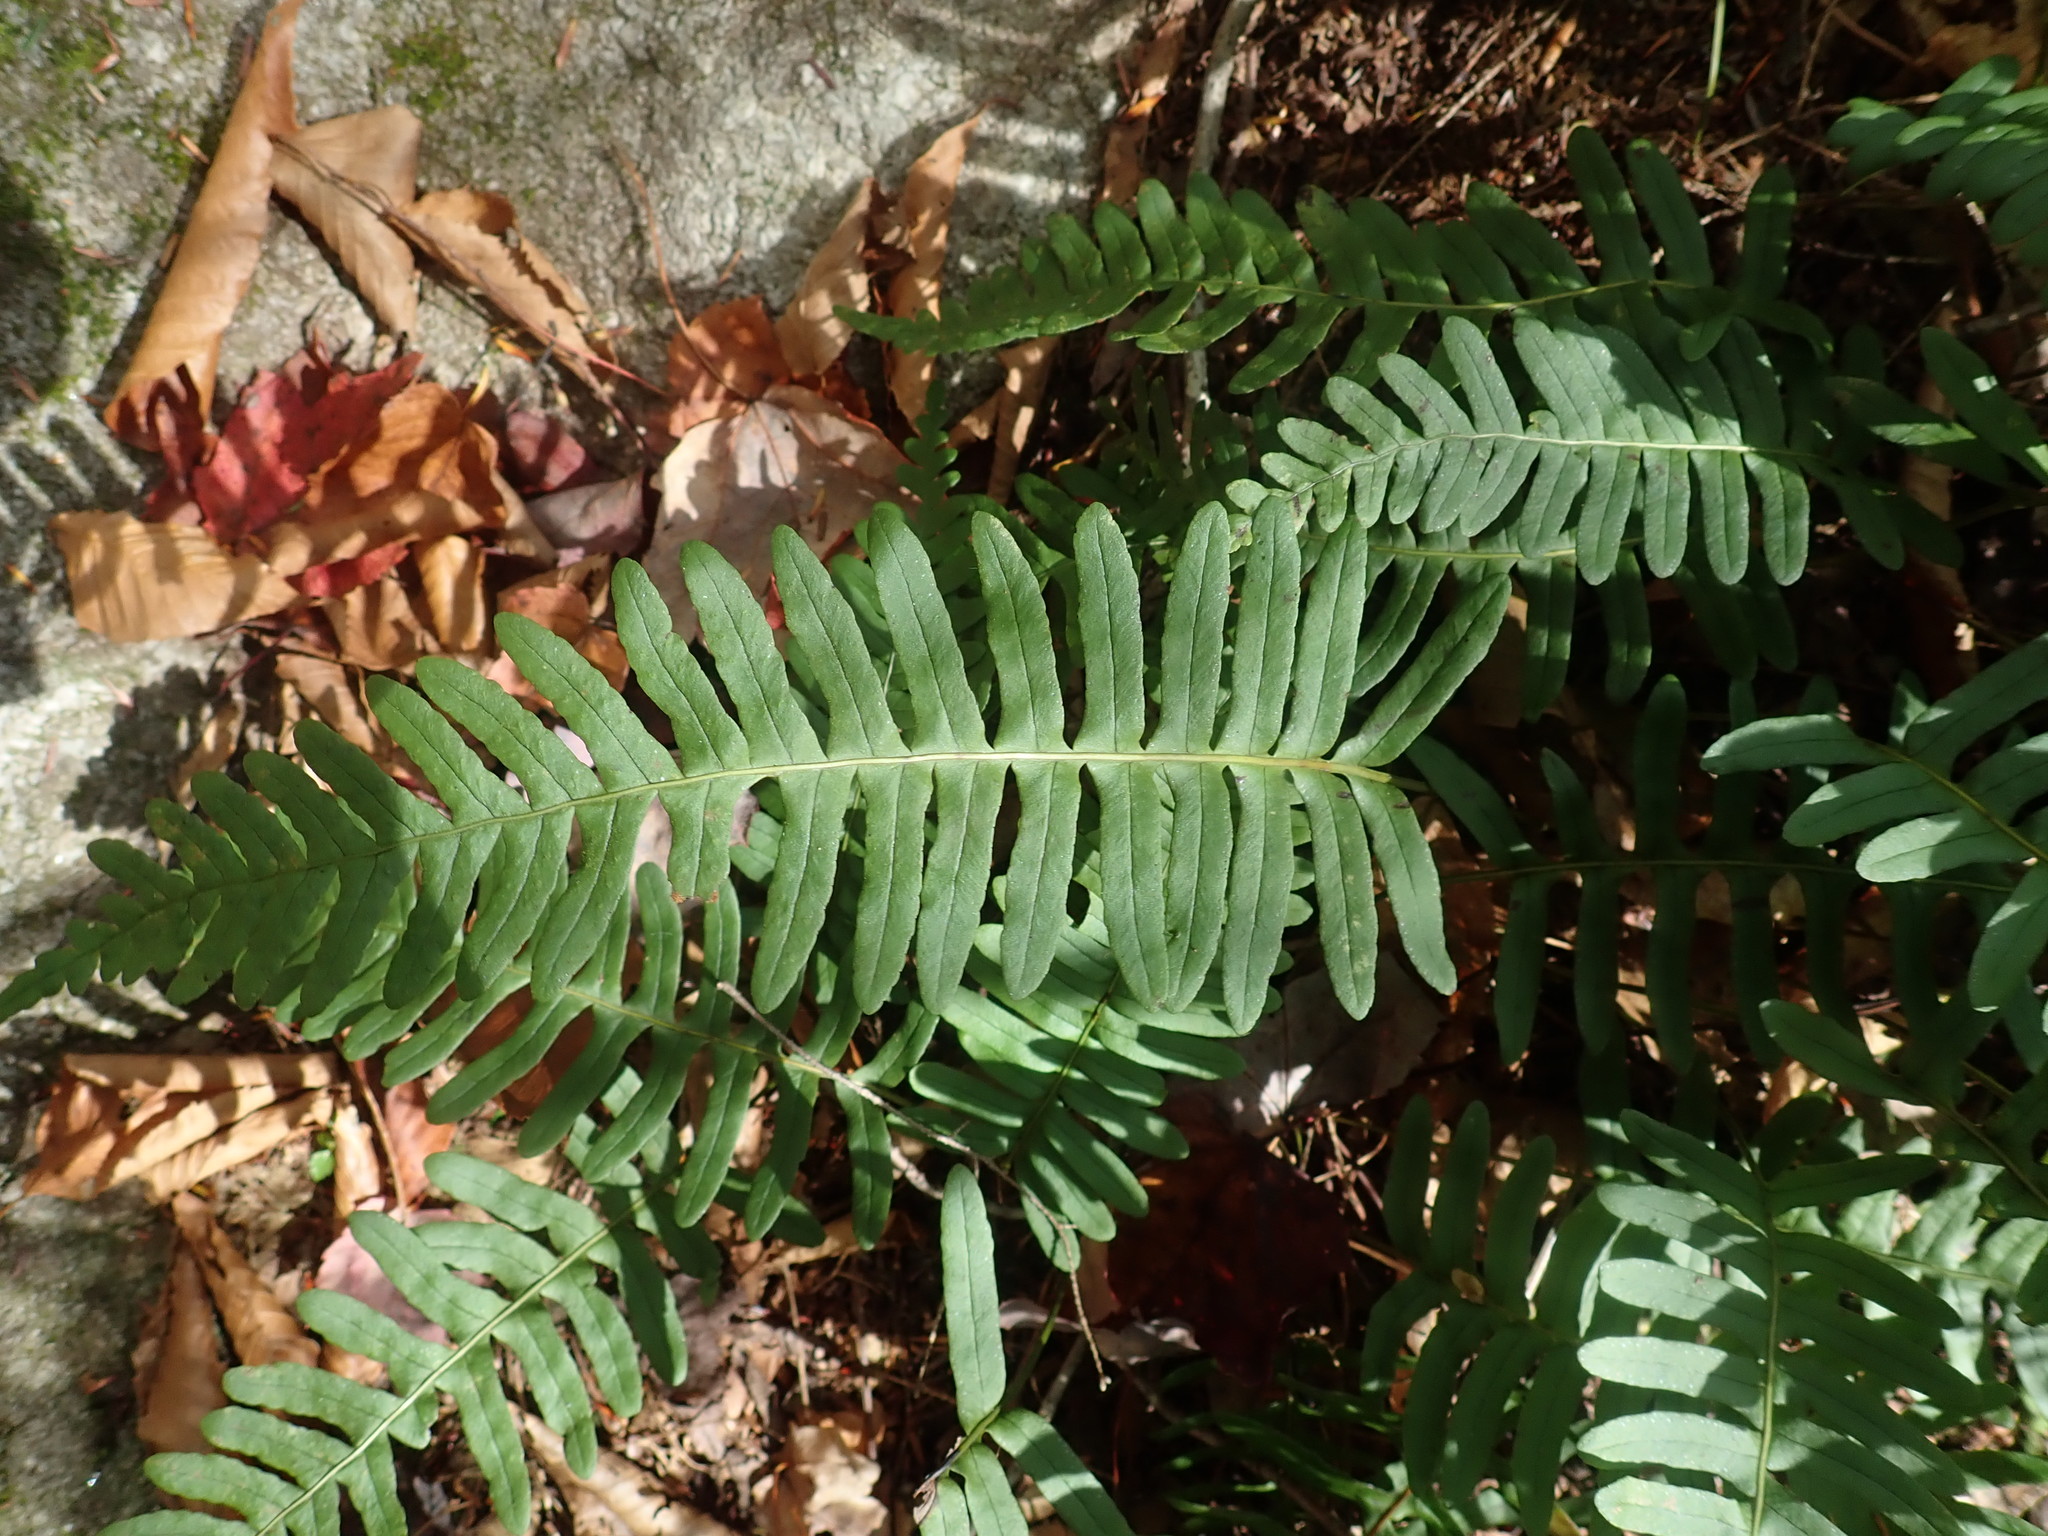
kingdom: Plantae
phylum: Tracheophyta
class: Polypodiopsida
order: Polypodiales
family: Polypodiaceae
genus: Polypodium
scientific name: Polypodium
